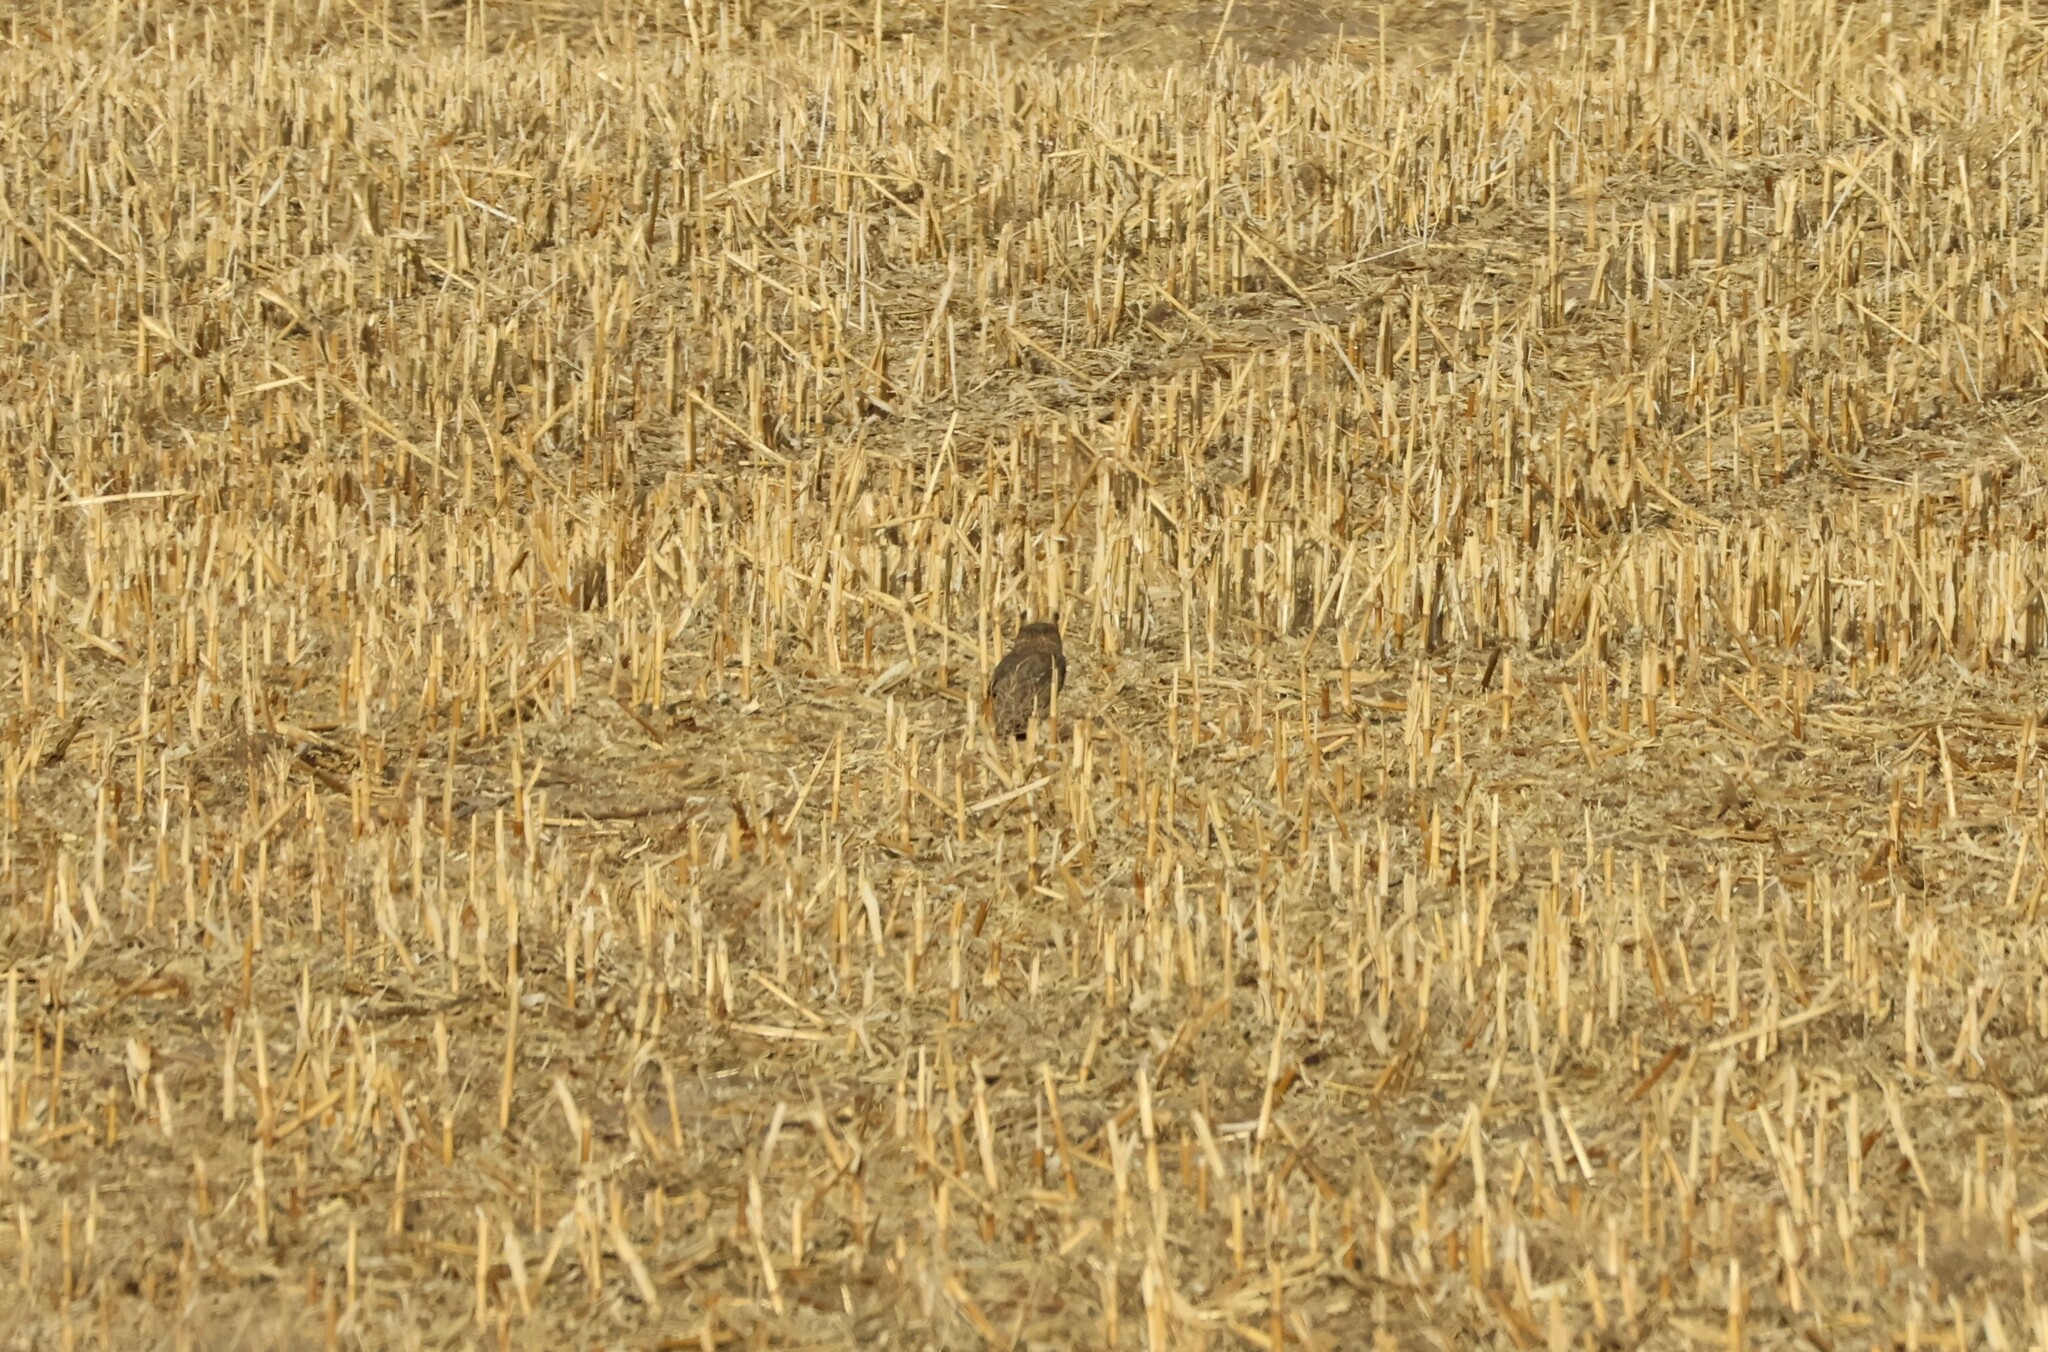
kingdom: Animalia
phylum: Chordata
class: Aves
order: Strigiformes
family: Strigidae
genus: Bubo
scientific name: Bubo virginianus
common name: Great horned owl
